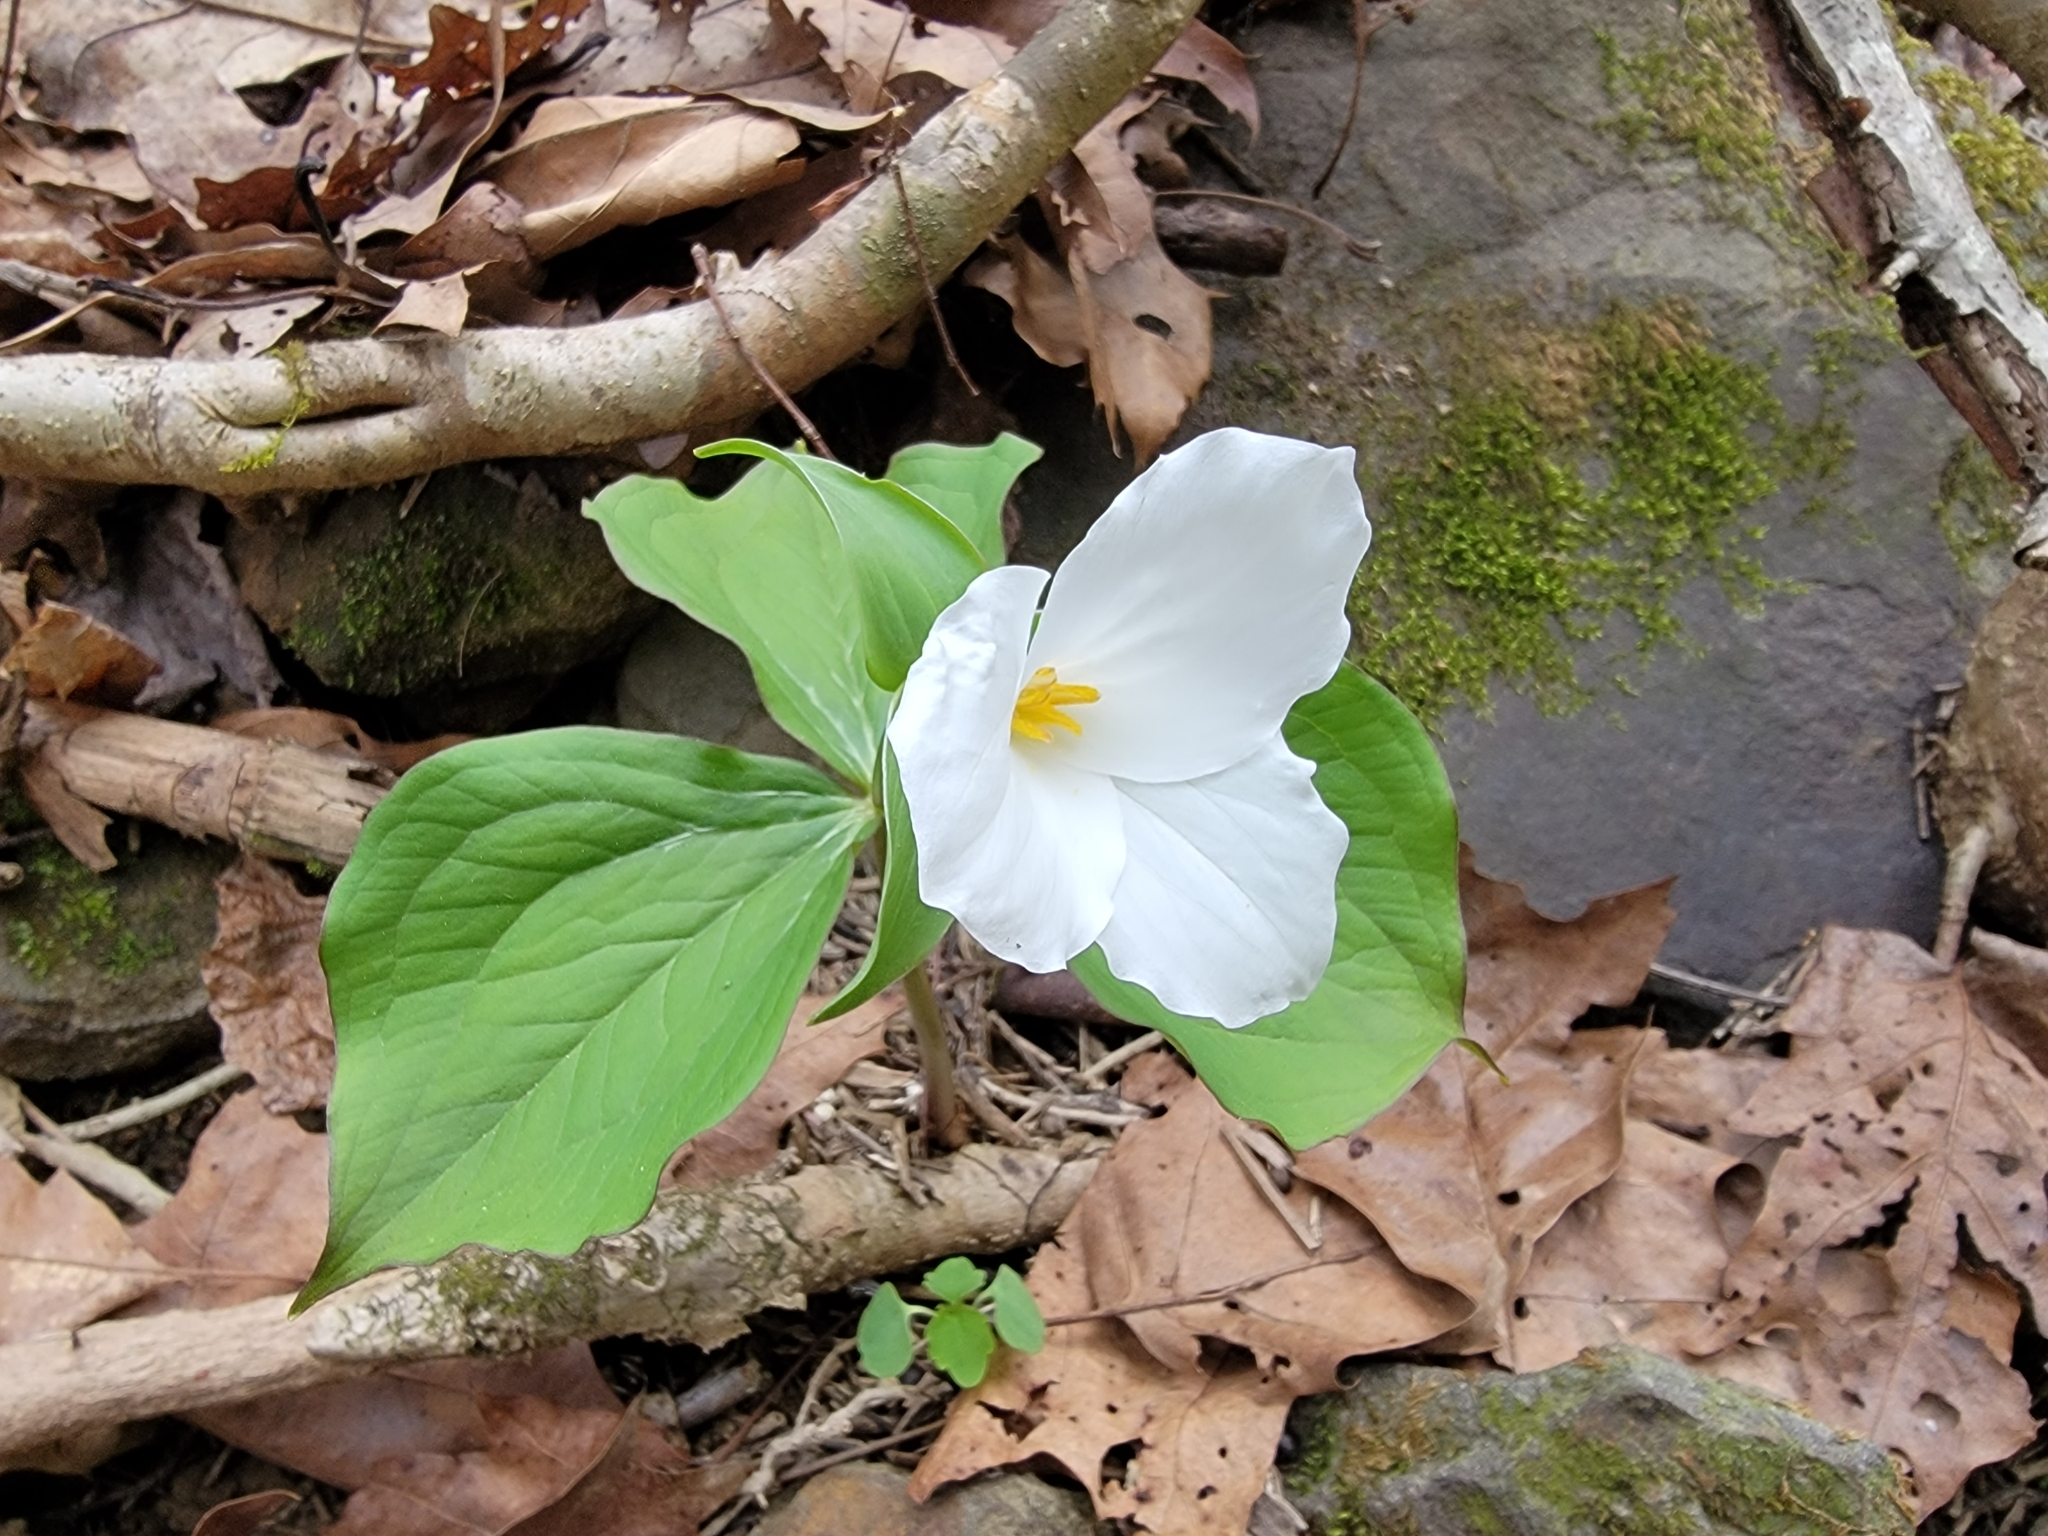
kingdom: Plantae
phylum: Tracheophyta
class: Liliopsida
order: Liliales
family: Melanthiaceae
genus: Trillium
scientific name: Trillium grandiflorum
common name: Great white trillium
